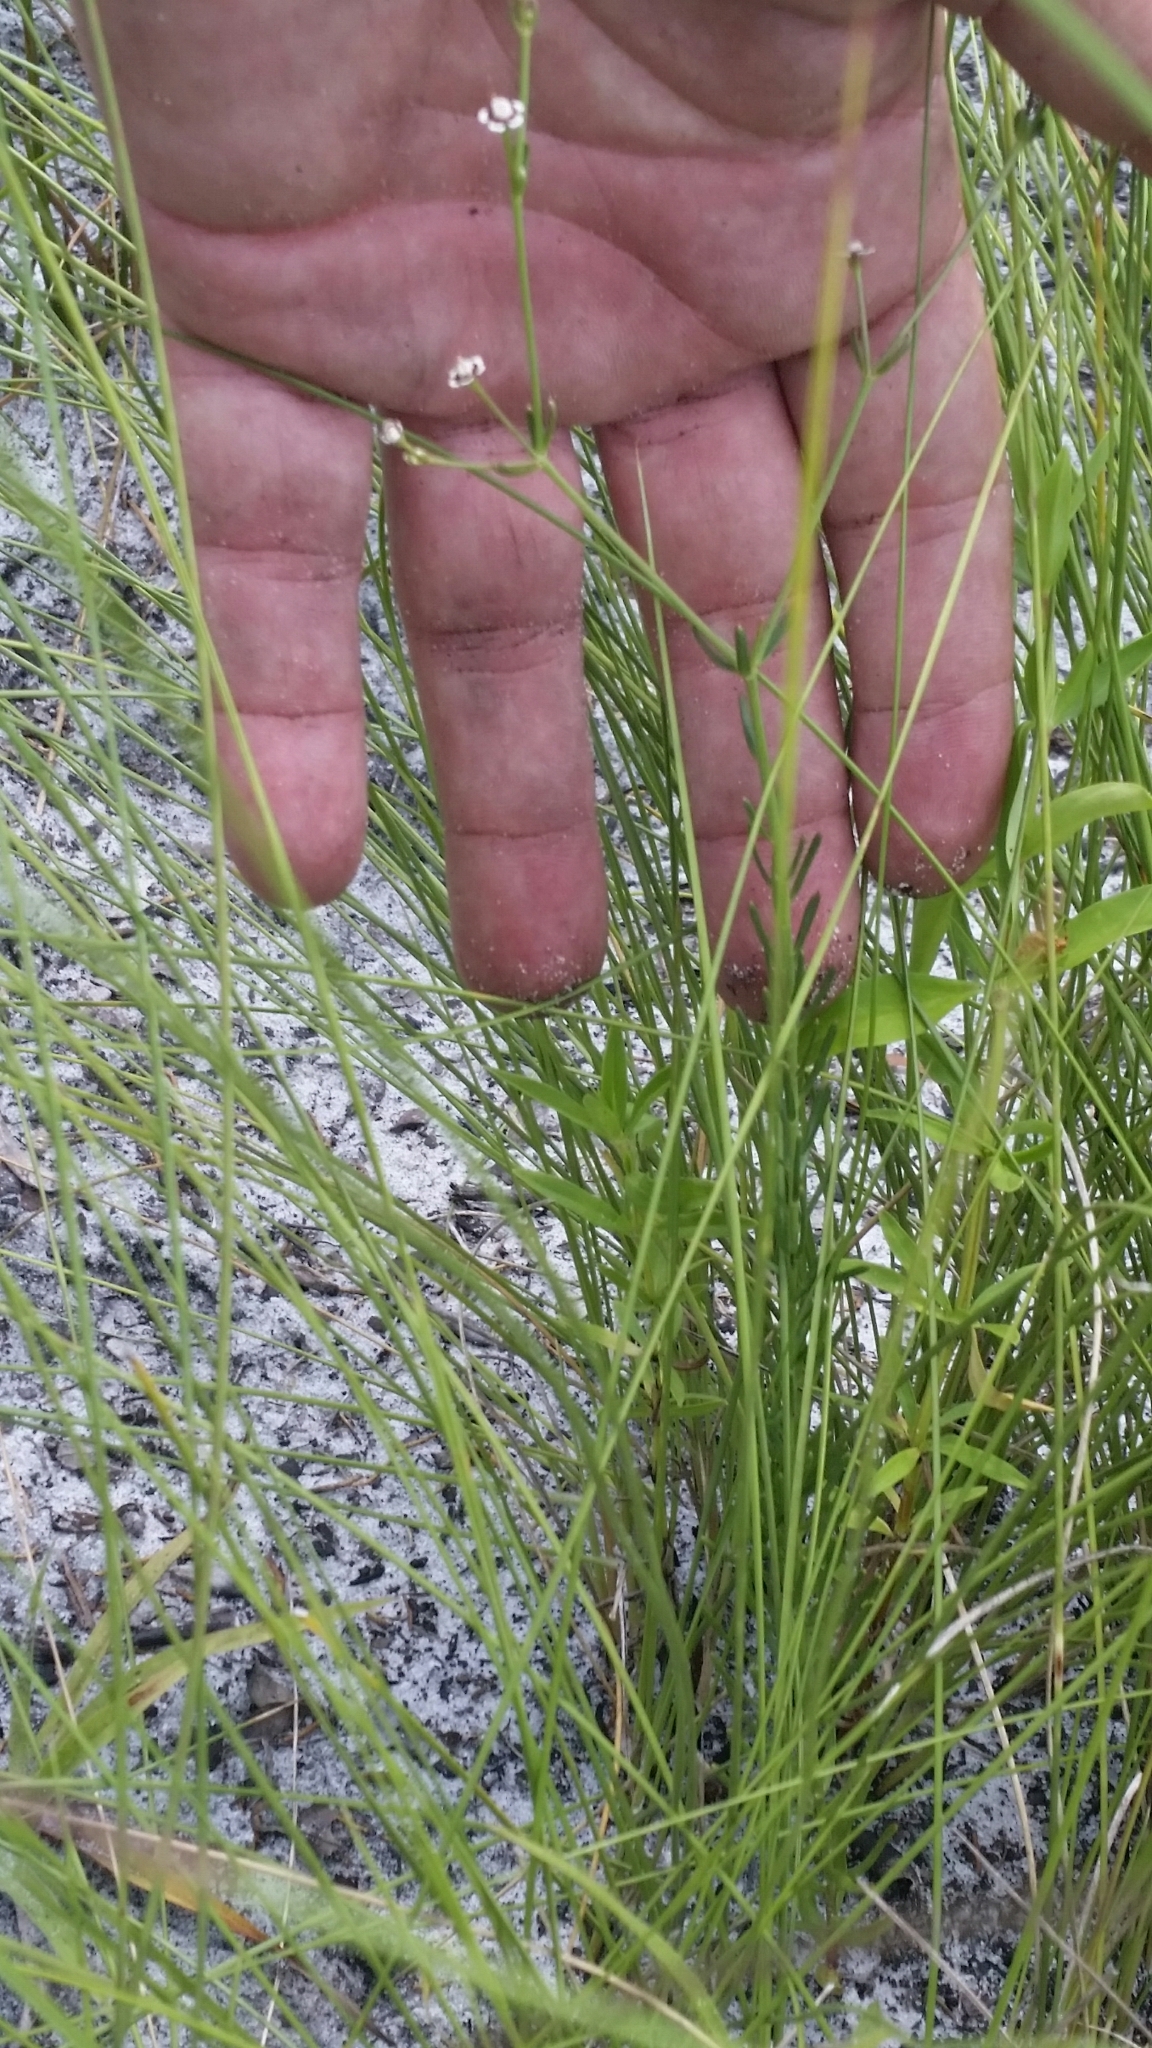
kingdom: Plantae
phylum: Tracheophyta
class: Magnoliopsida
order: Malpighiales
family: Euphorbiaceae
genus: Euphorbia
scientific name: Euphorbia polyphylla
